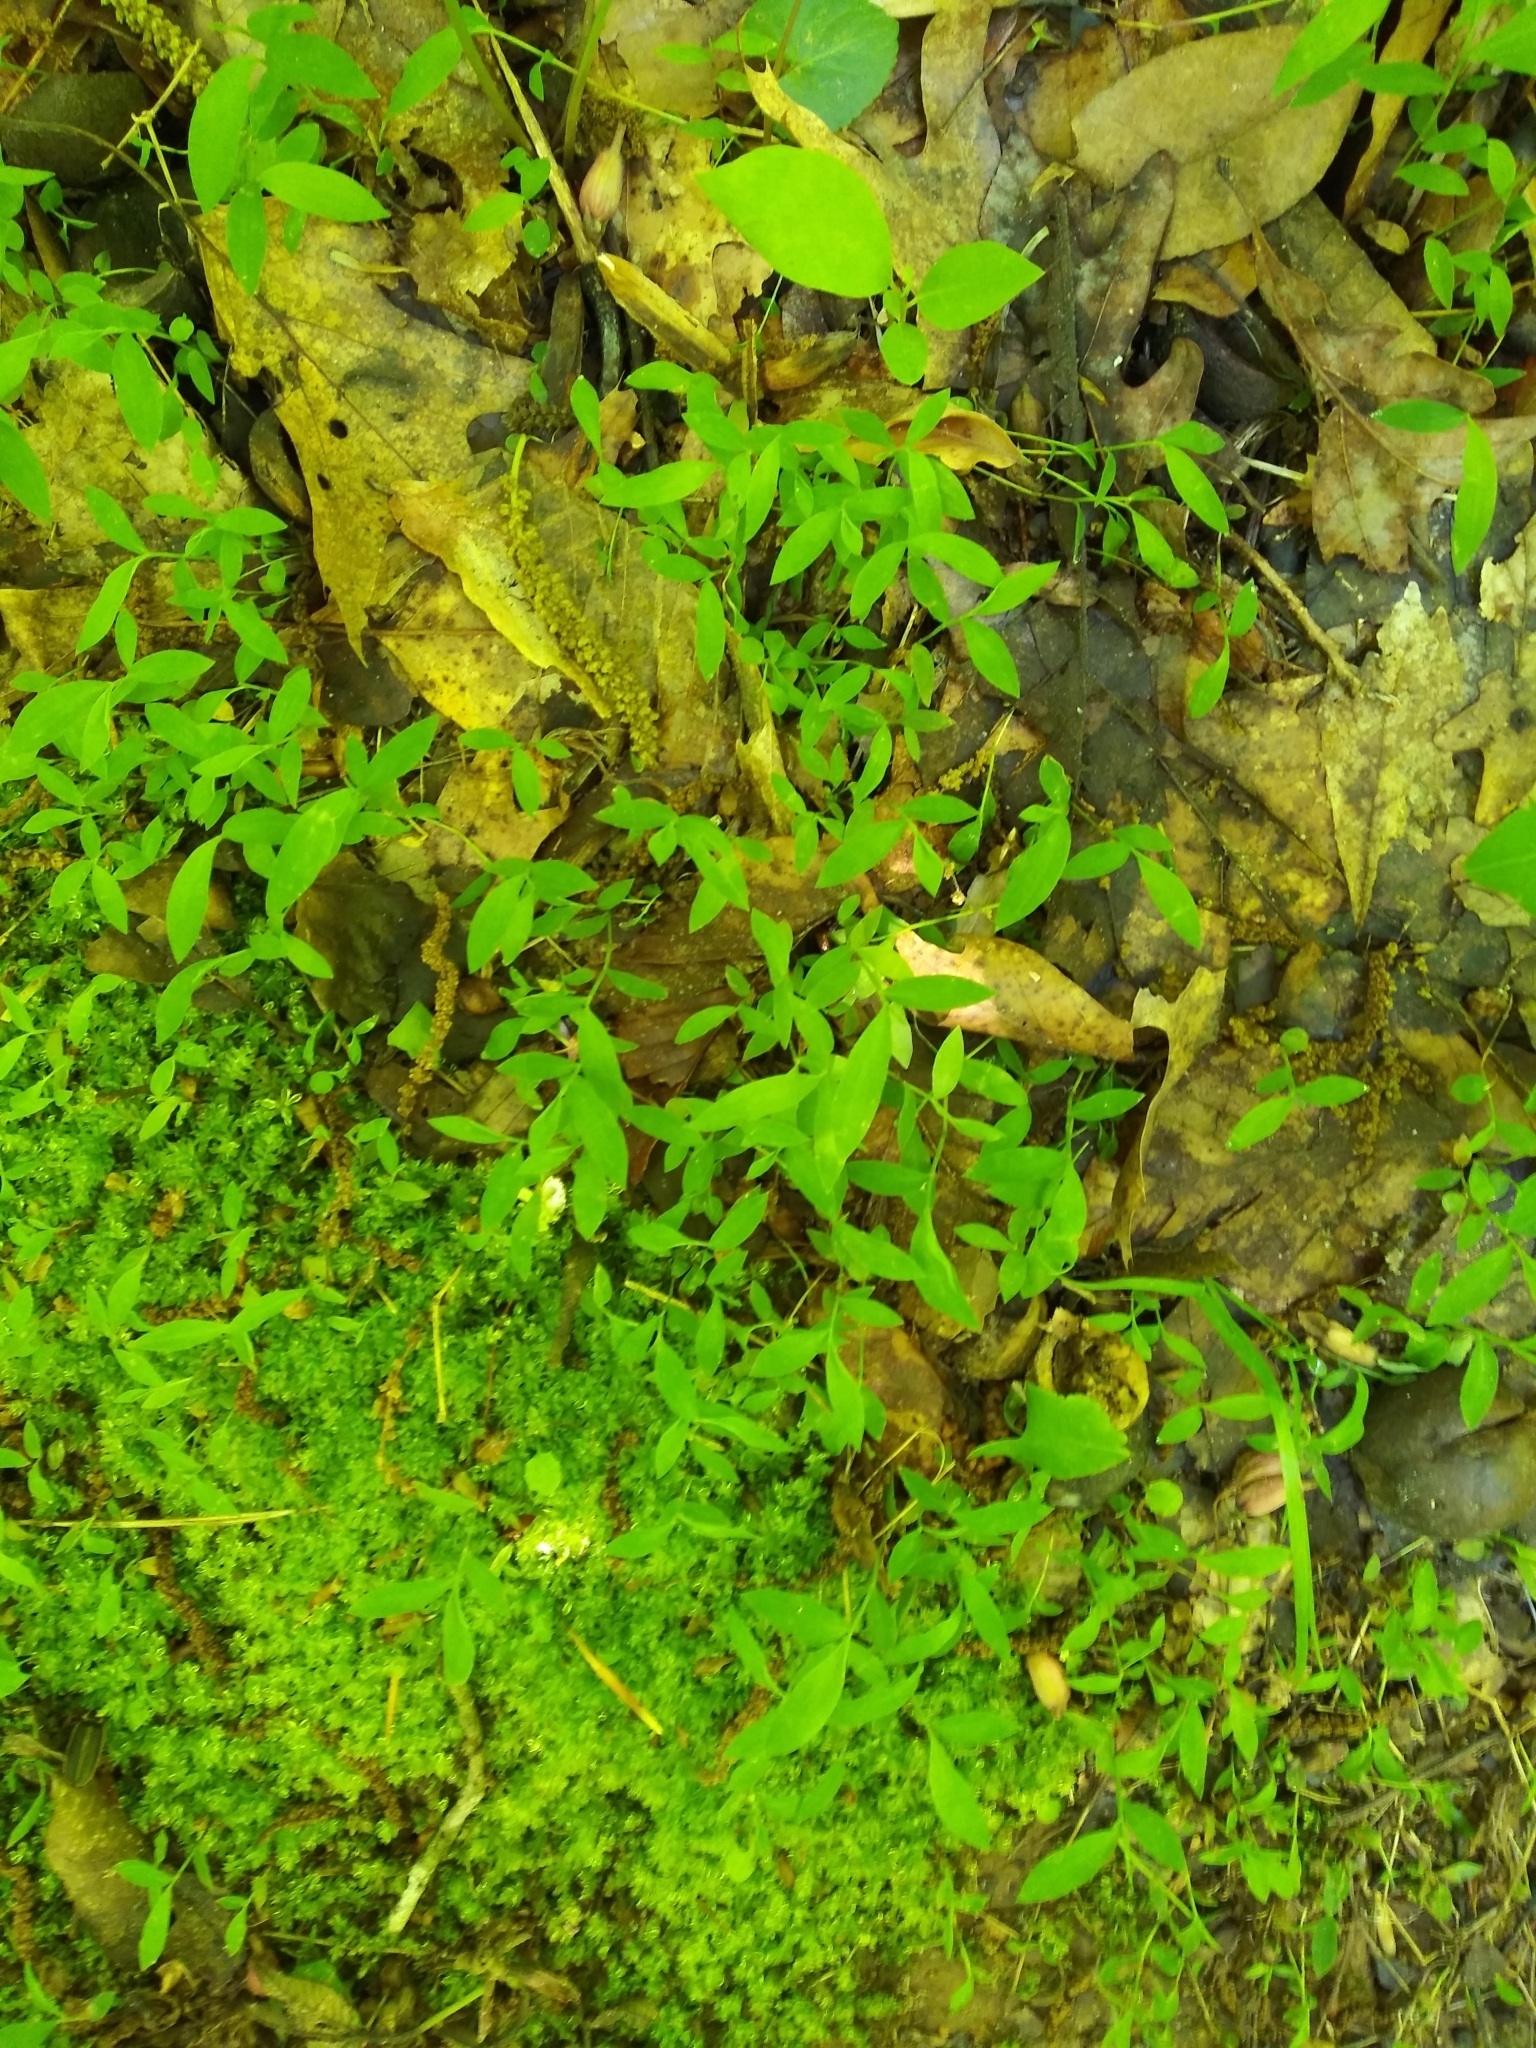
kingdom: Plantae
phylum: Tracheophyta
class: Liliopsida
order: Poales
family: Poaceae
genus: Microstegium
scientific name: Microstegium vimineum
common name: Japanese stiltgrass
